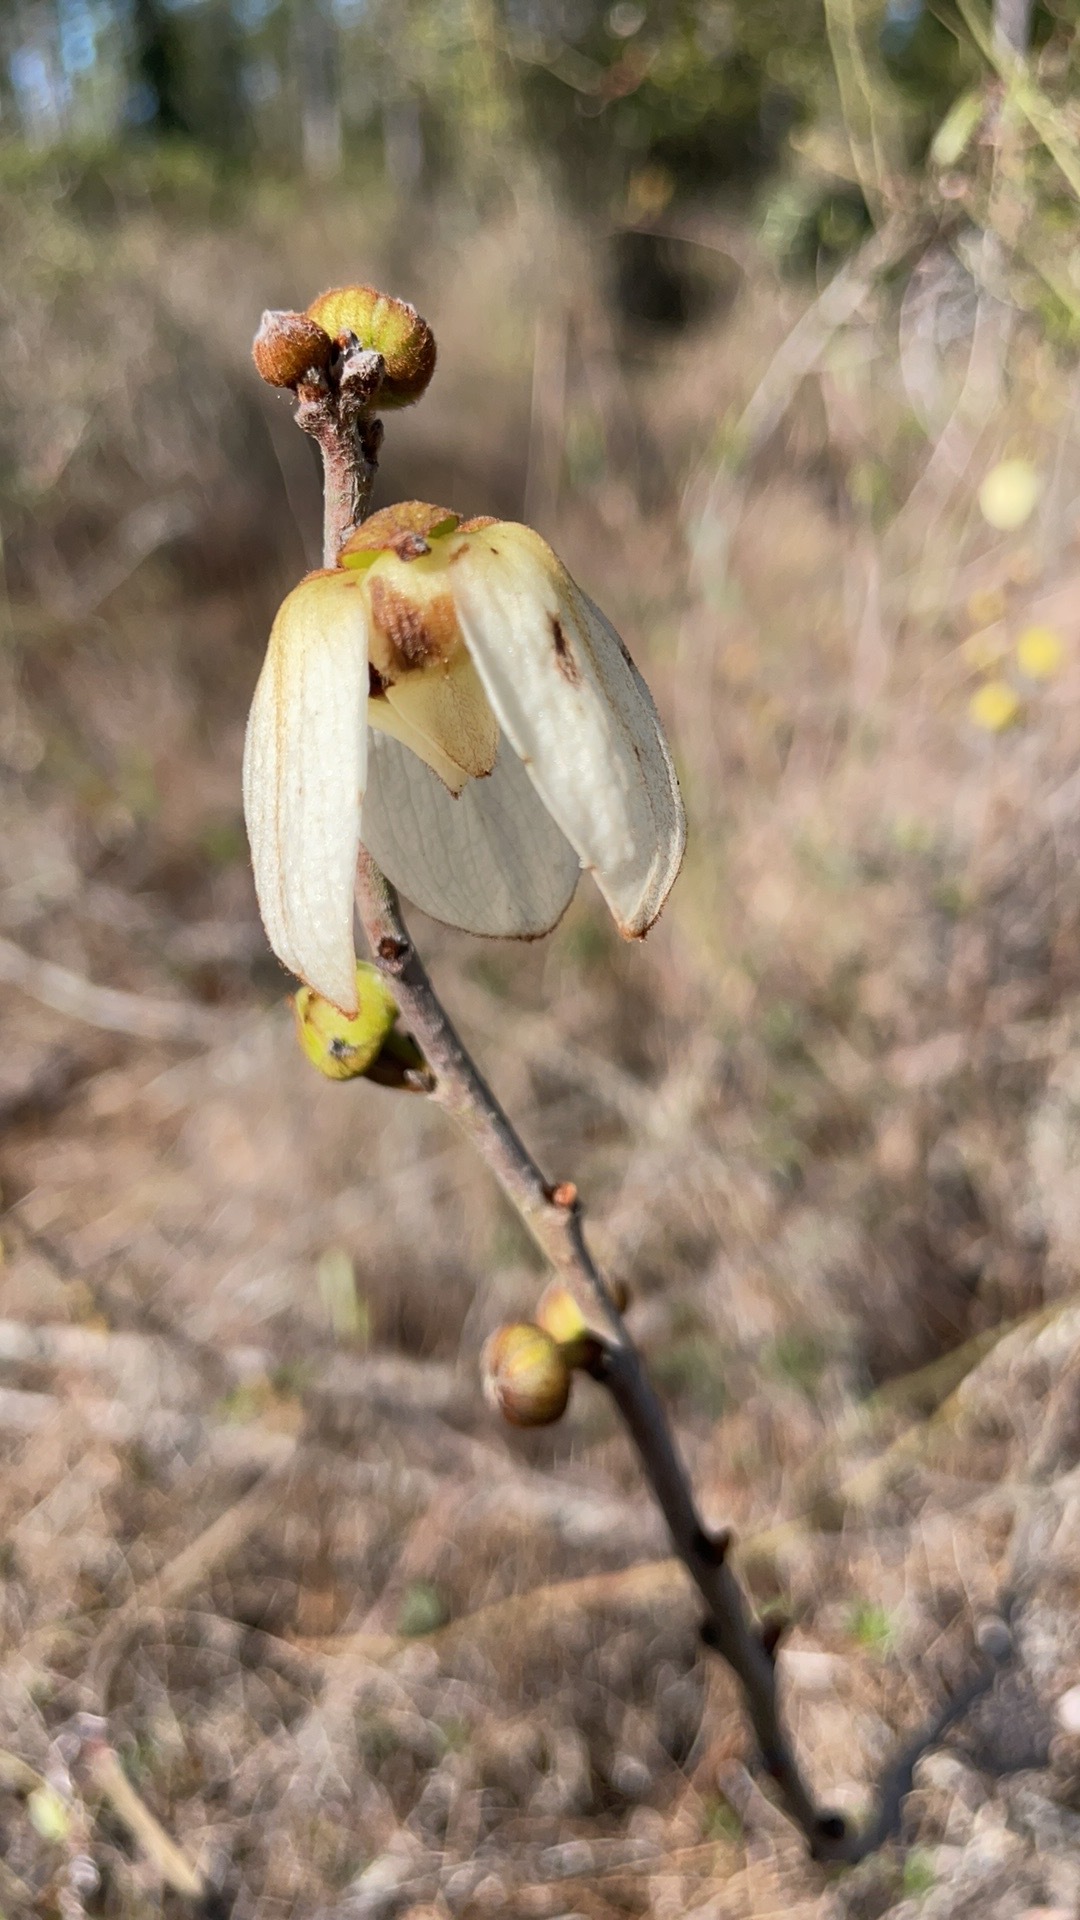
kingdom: Plantae
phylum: Tracheophyta
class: Magnoliopsida
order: Magnoliales
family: Annonaceae
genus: Asimina
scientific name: Asimina reticulata
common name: Flag pawpaw
